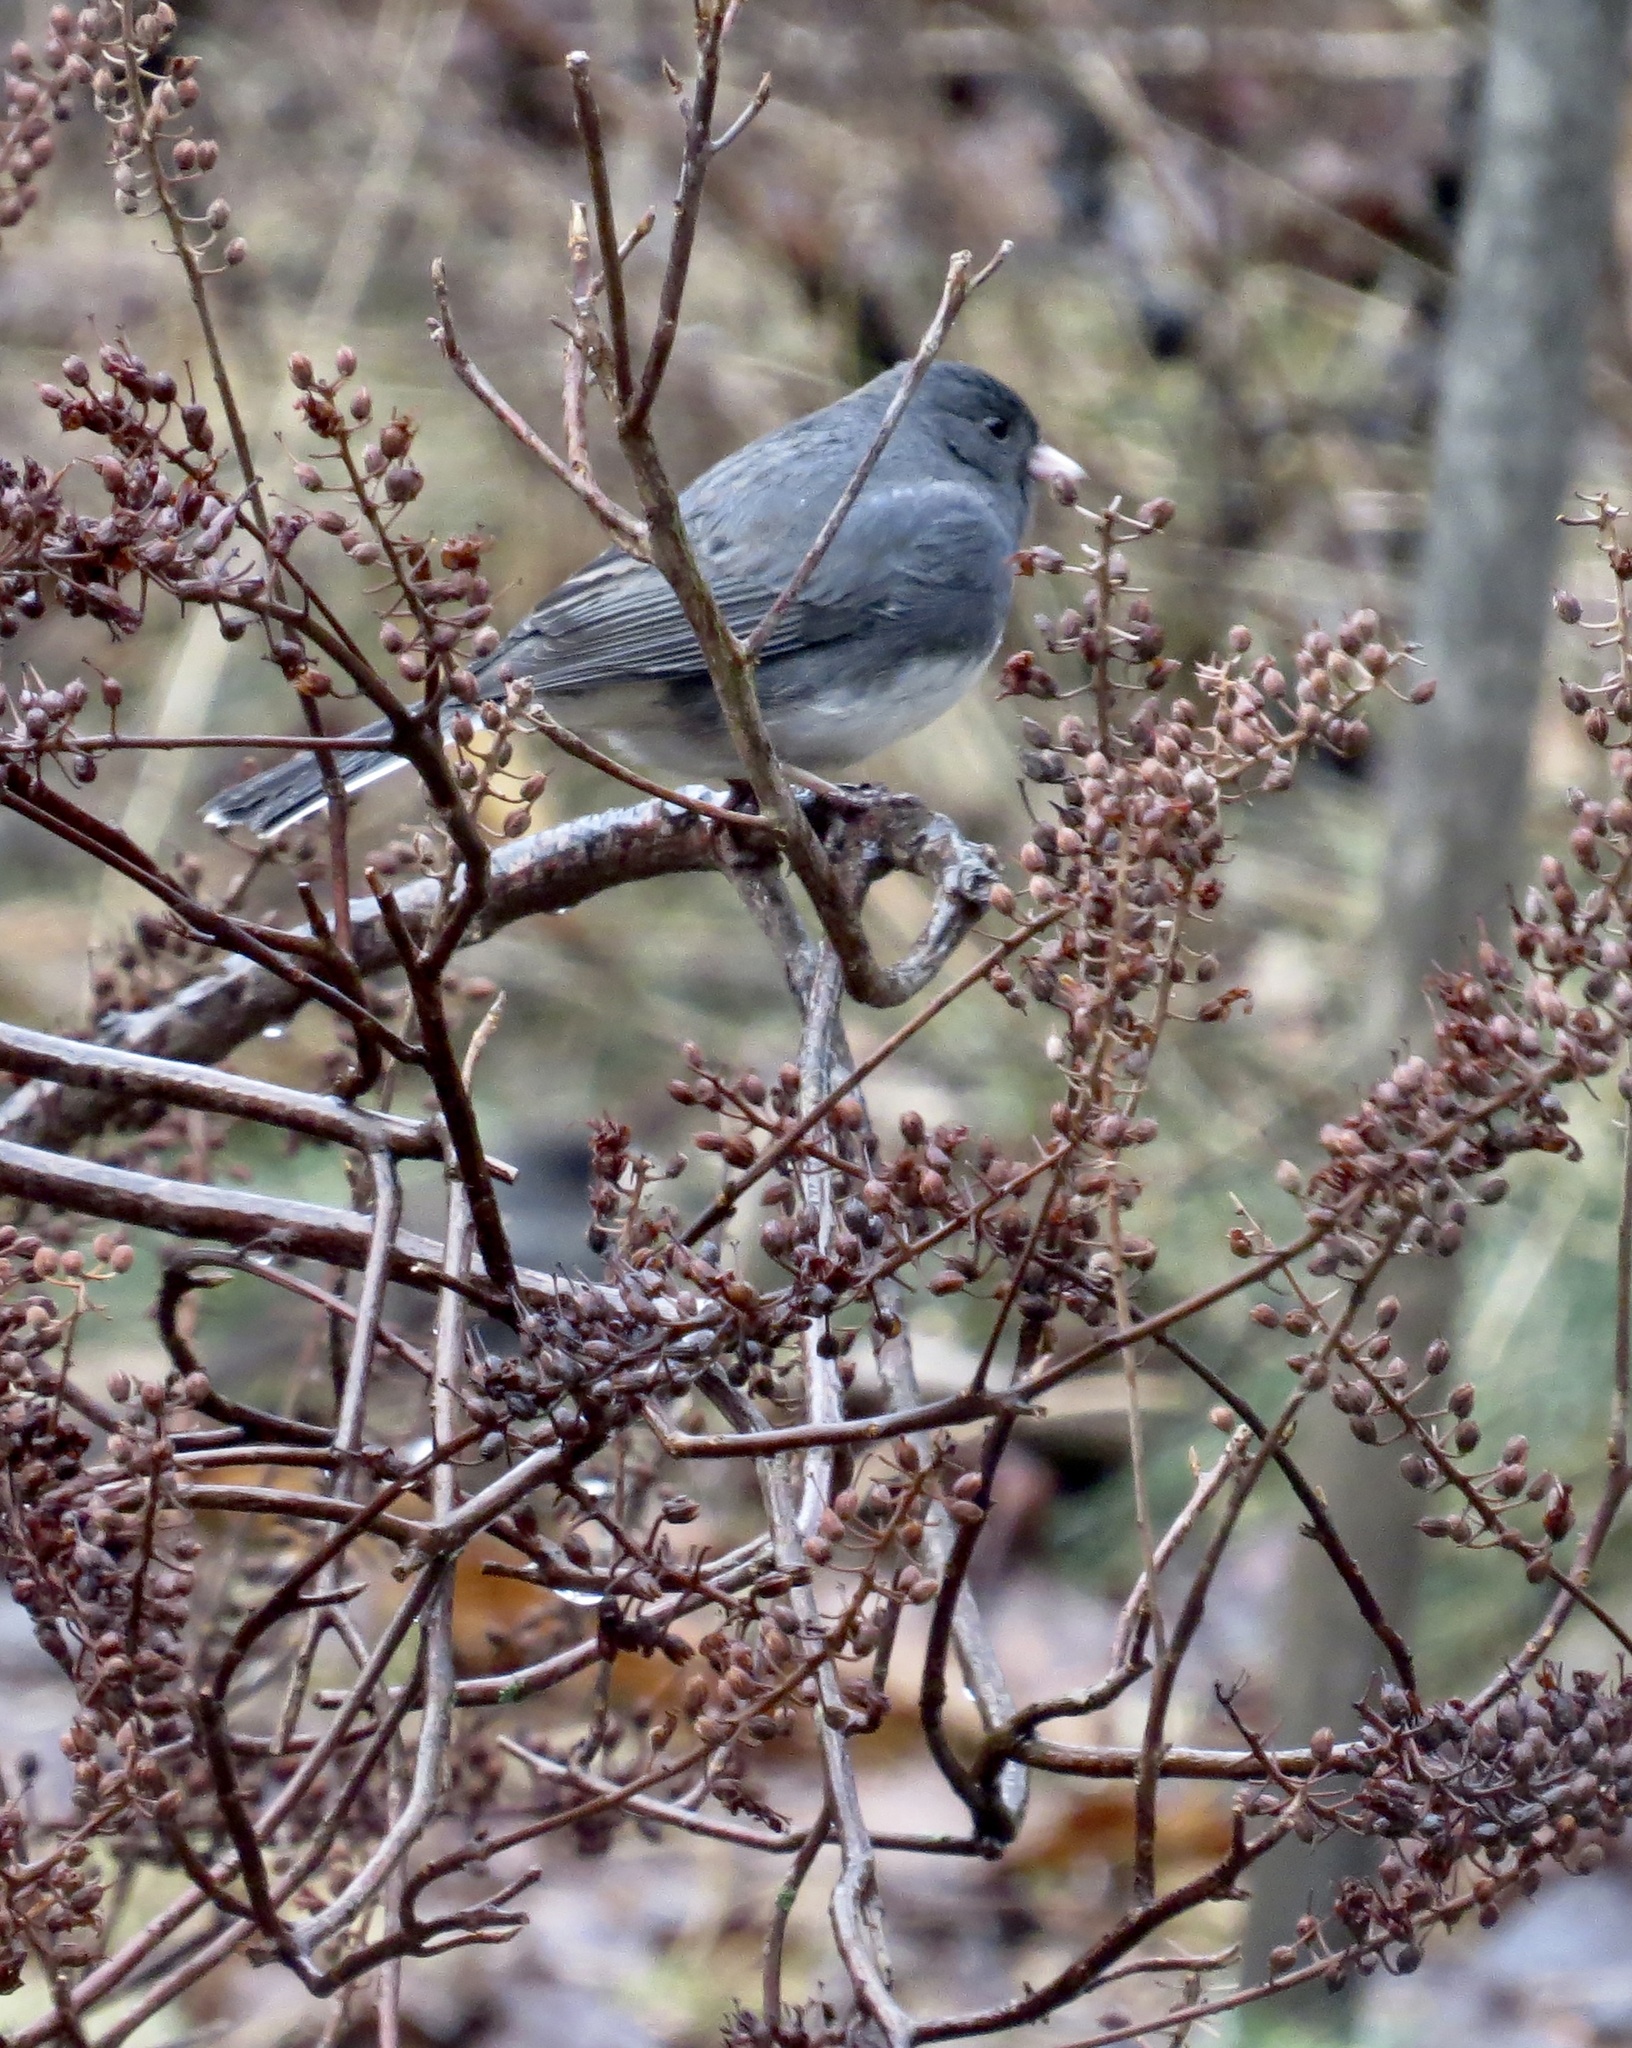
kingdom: Animalia
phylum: Chordata
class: Aves
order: Passeriformes
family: Passerellidae
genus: Junco
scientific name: Junco hyemalis
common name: Dark-eyed junco
